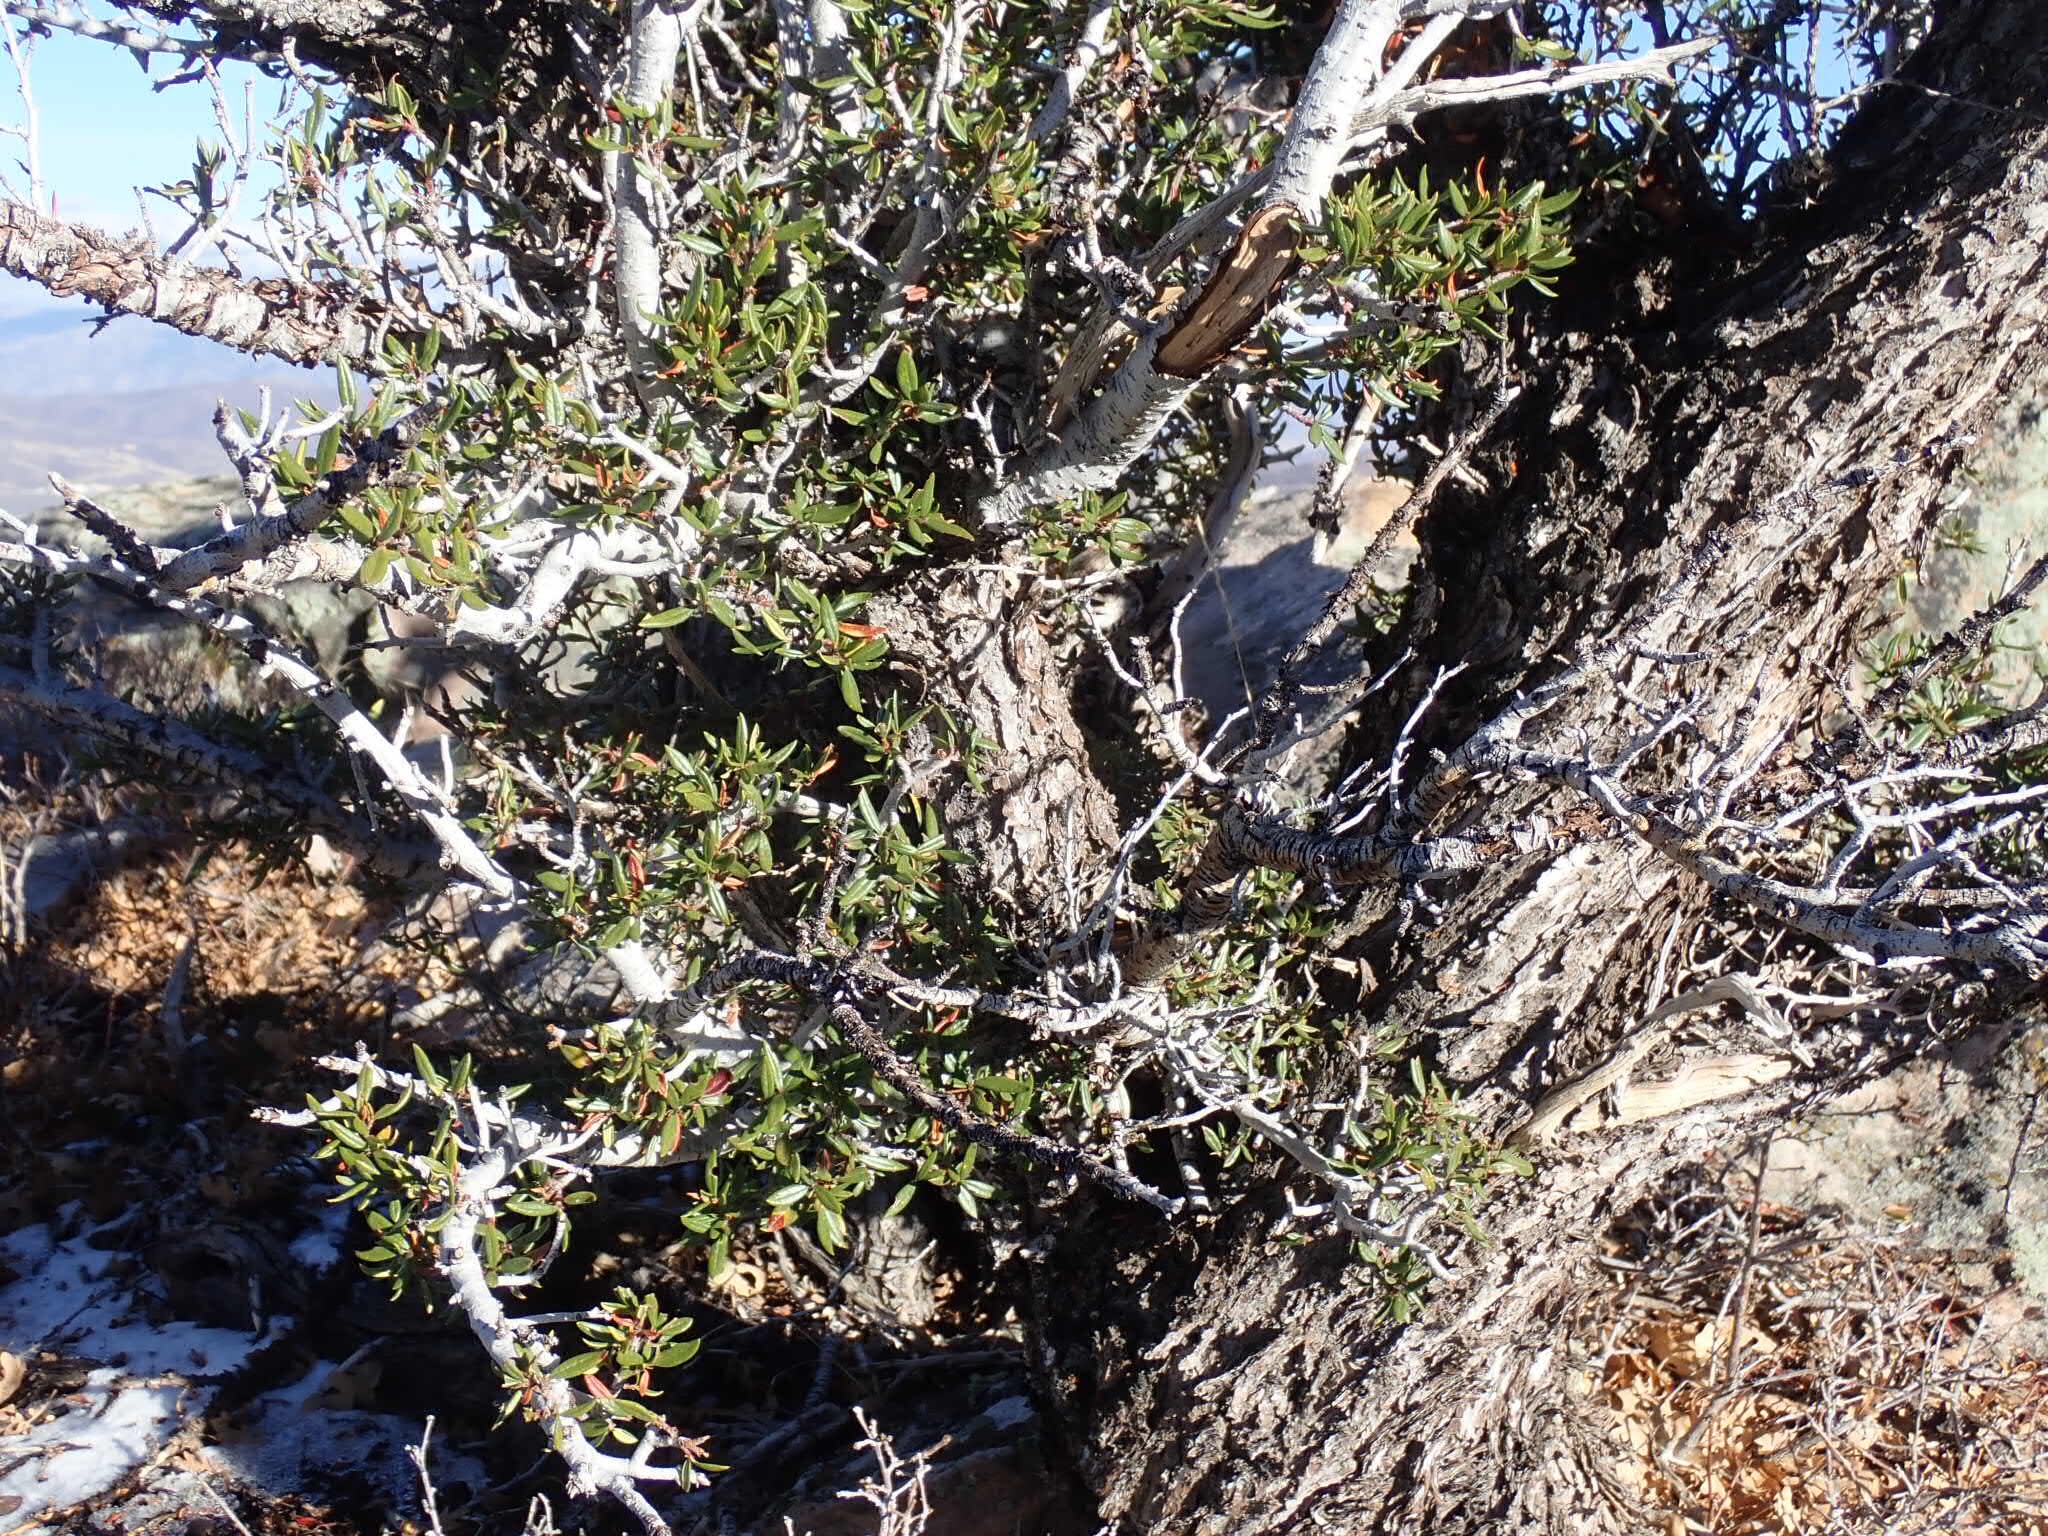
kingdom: Plantae
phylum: Tracheophyta
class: Magnoliopsida
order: Rosales
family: Rosaceae
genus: Cercocarpus
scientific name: Cercocarpus ledifolius
